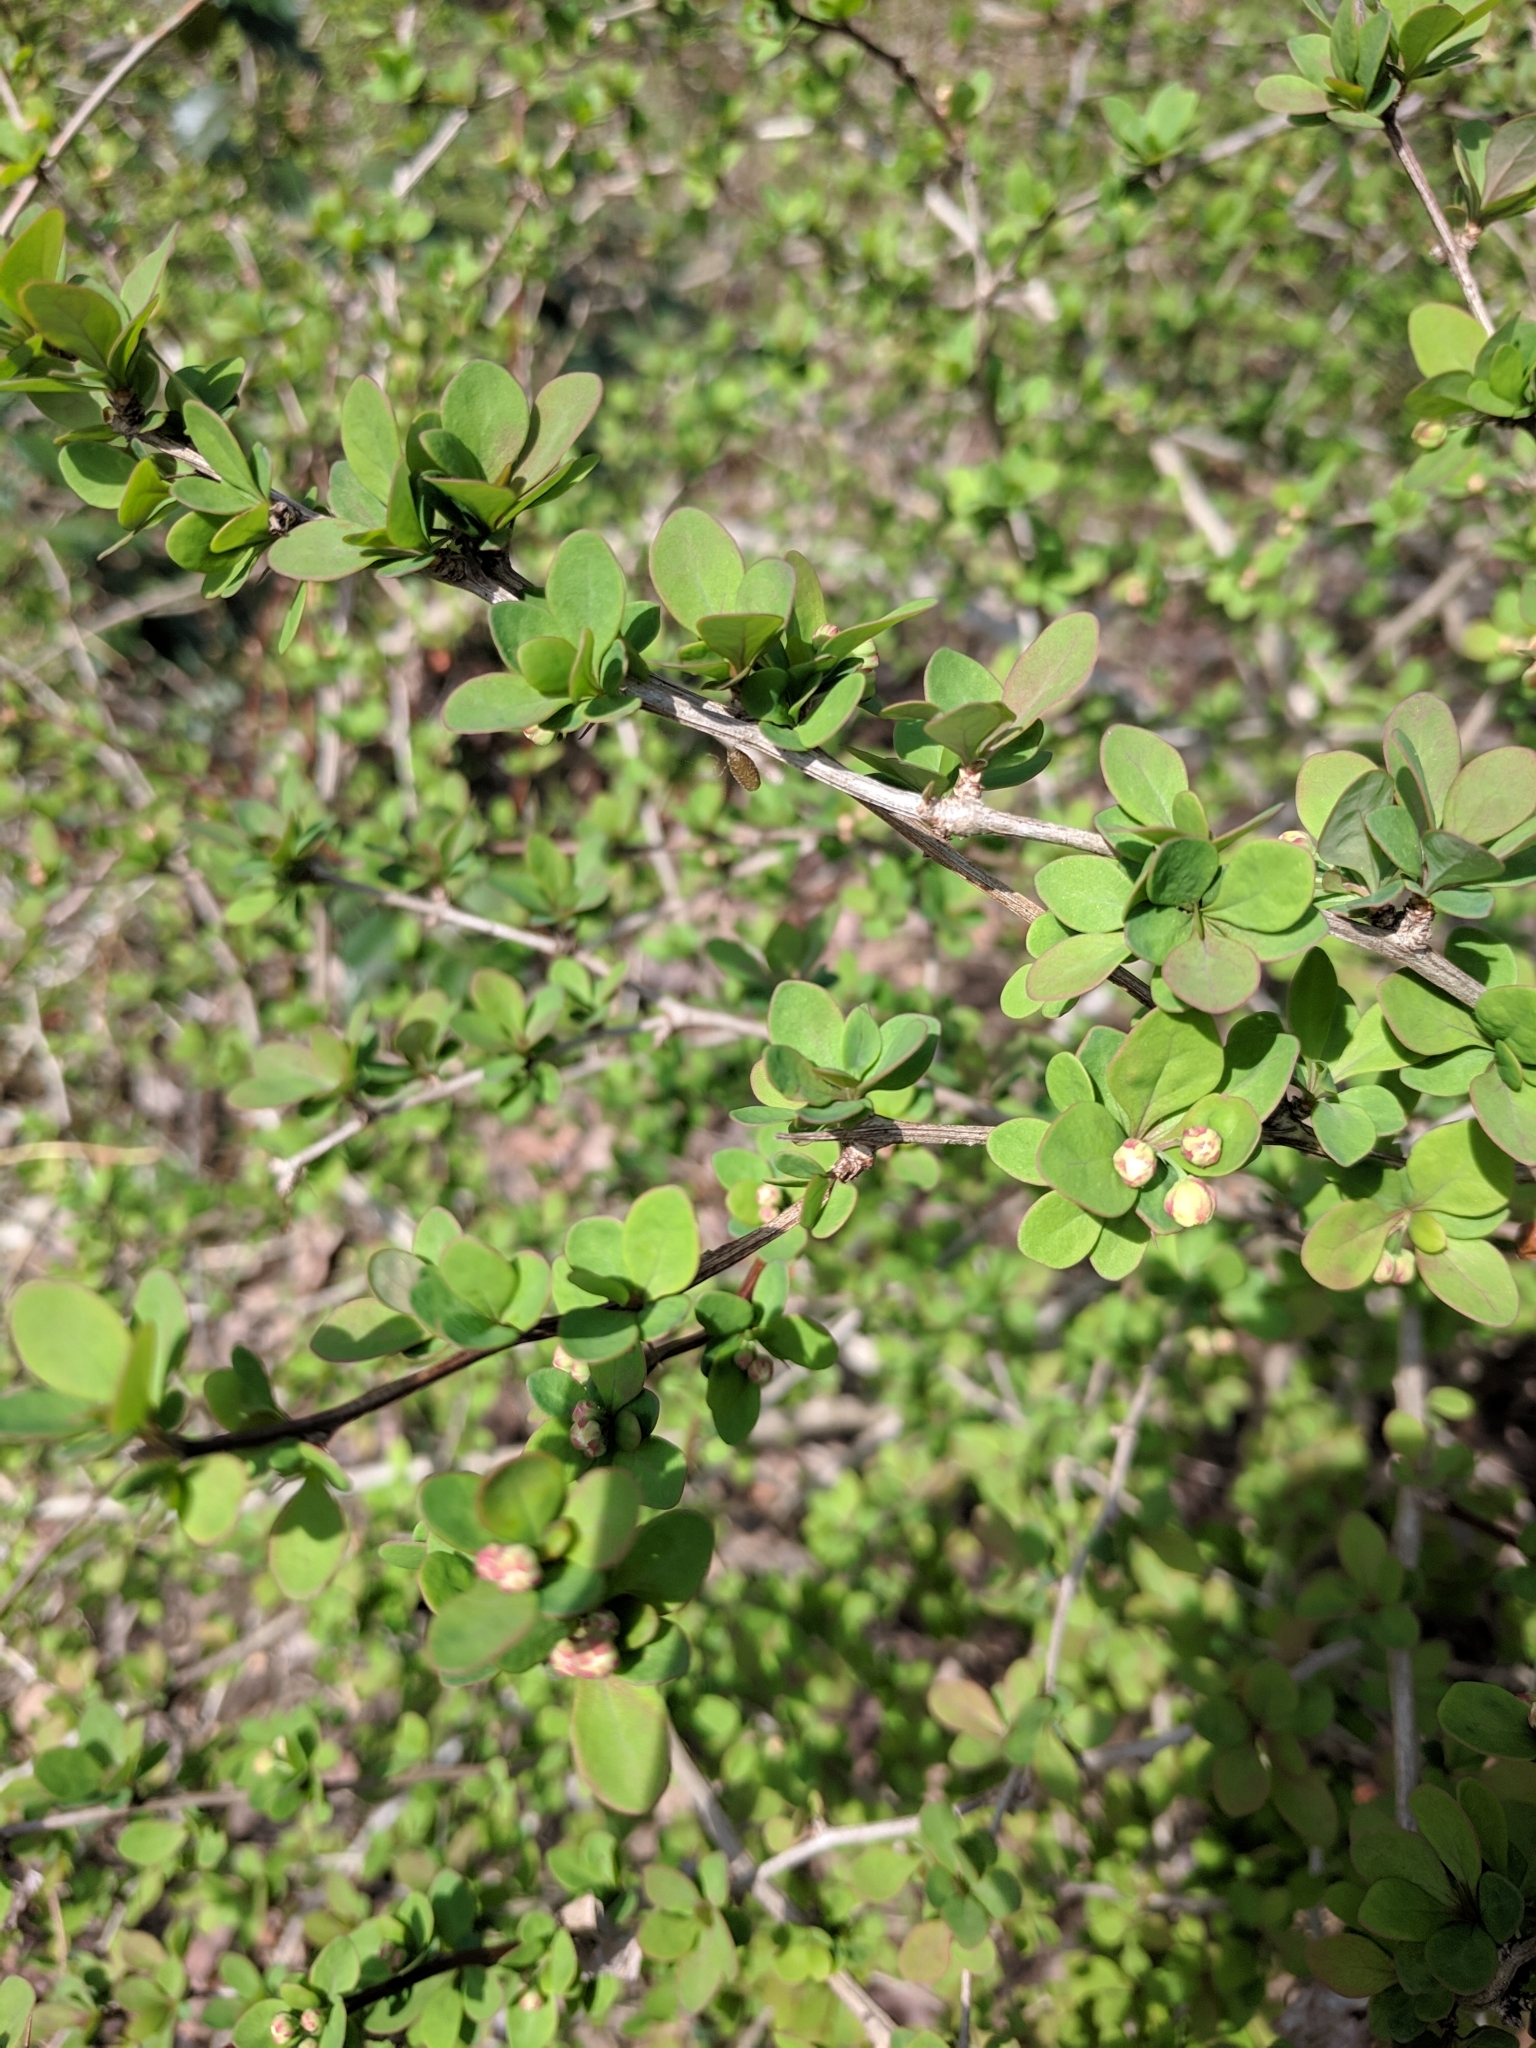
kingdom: Plantae
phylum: Tracheophyta
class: Magnoliopsida
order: Ranunculales
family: Berberidaceae
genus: Berberis
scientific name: Berberis thunbergii
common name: Japanese barberry
